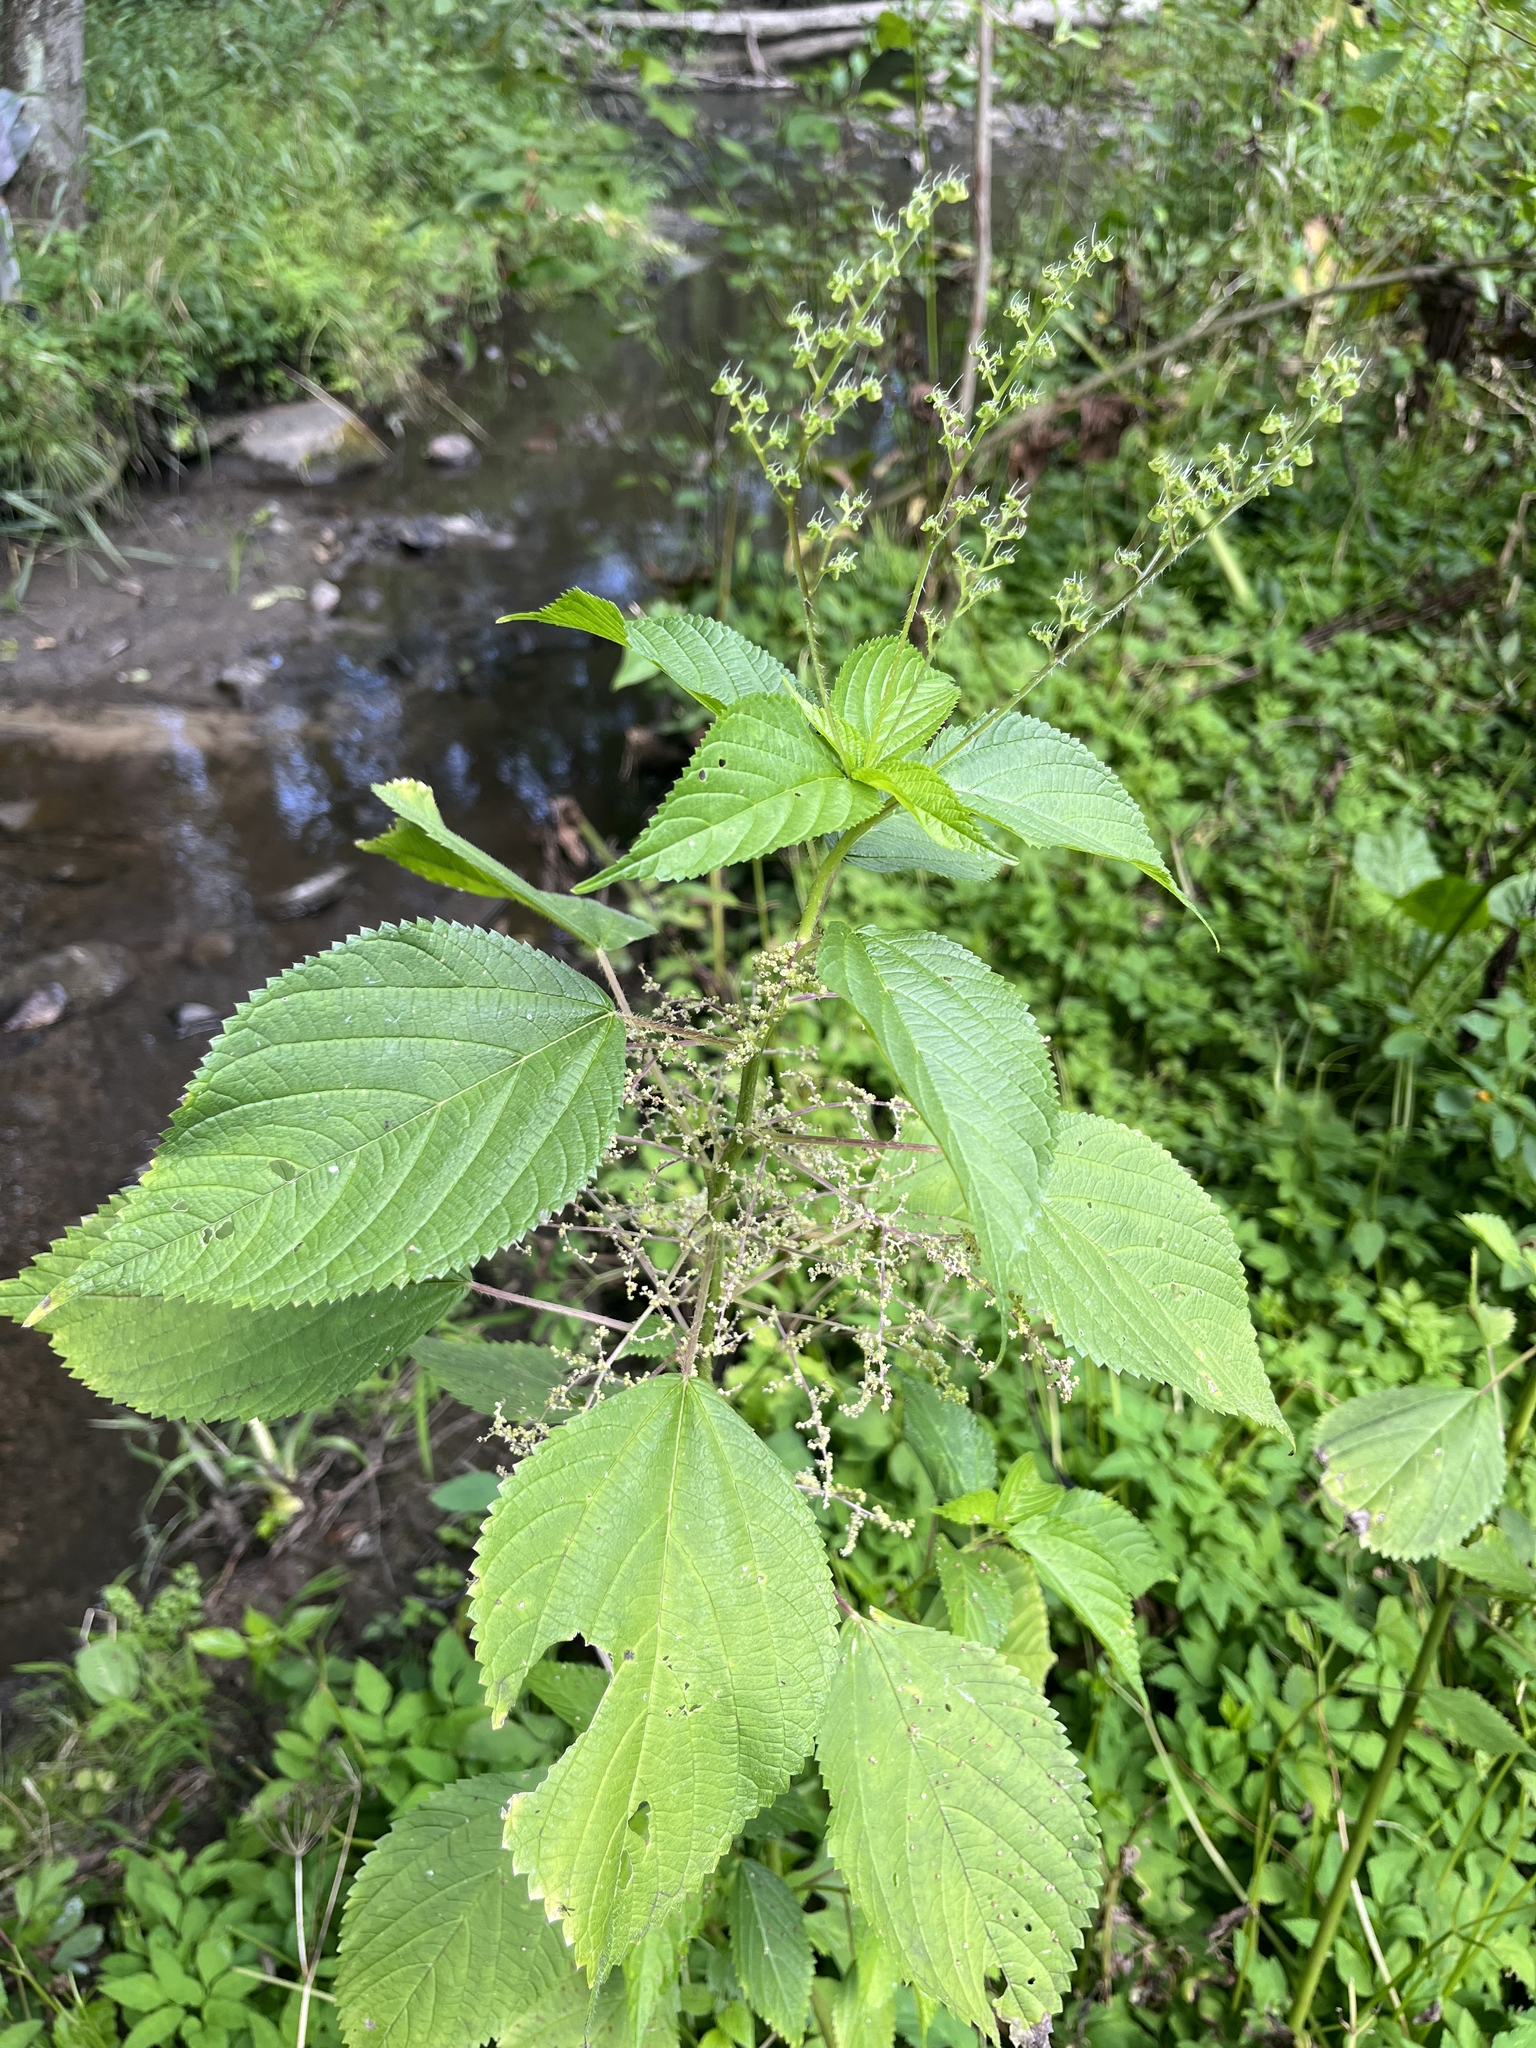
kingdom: Plantae
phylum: Tracheophyta
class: Magnoliopsida
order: Rosales
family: Urticaceae
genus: Laportea
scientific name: Laportea canadensis
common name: Canada nettle
